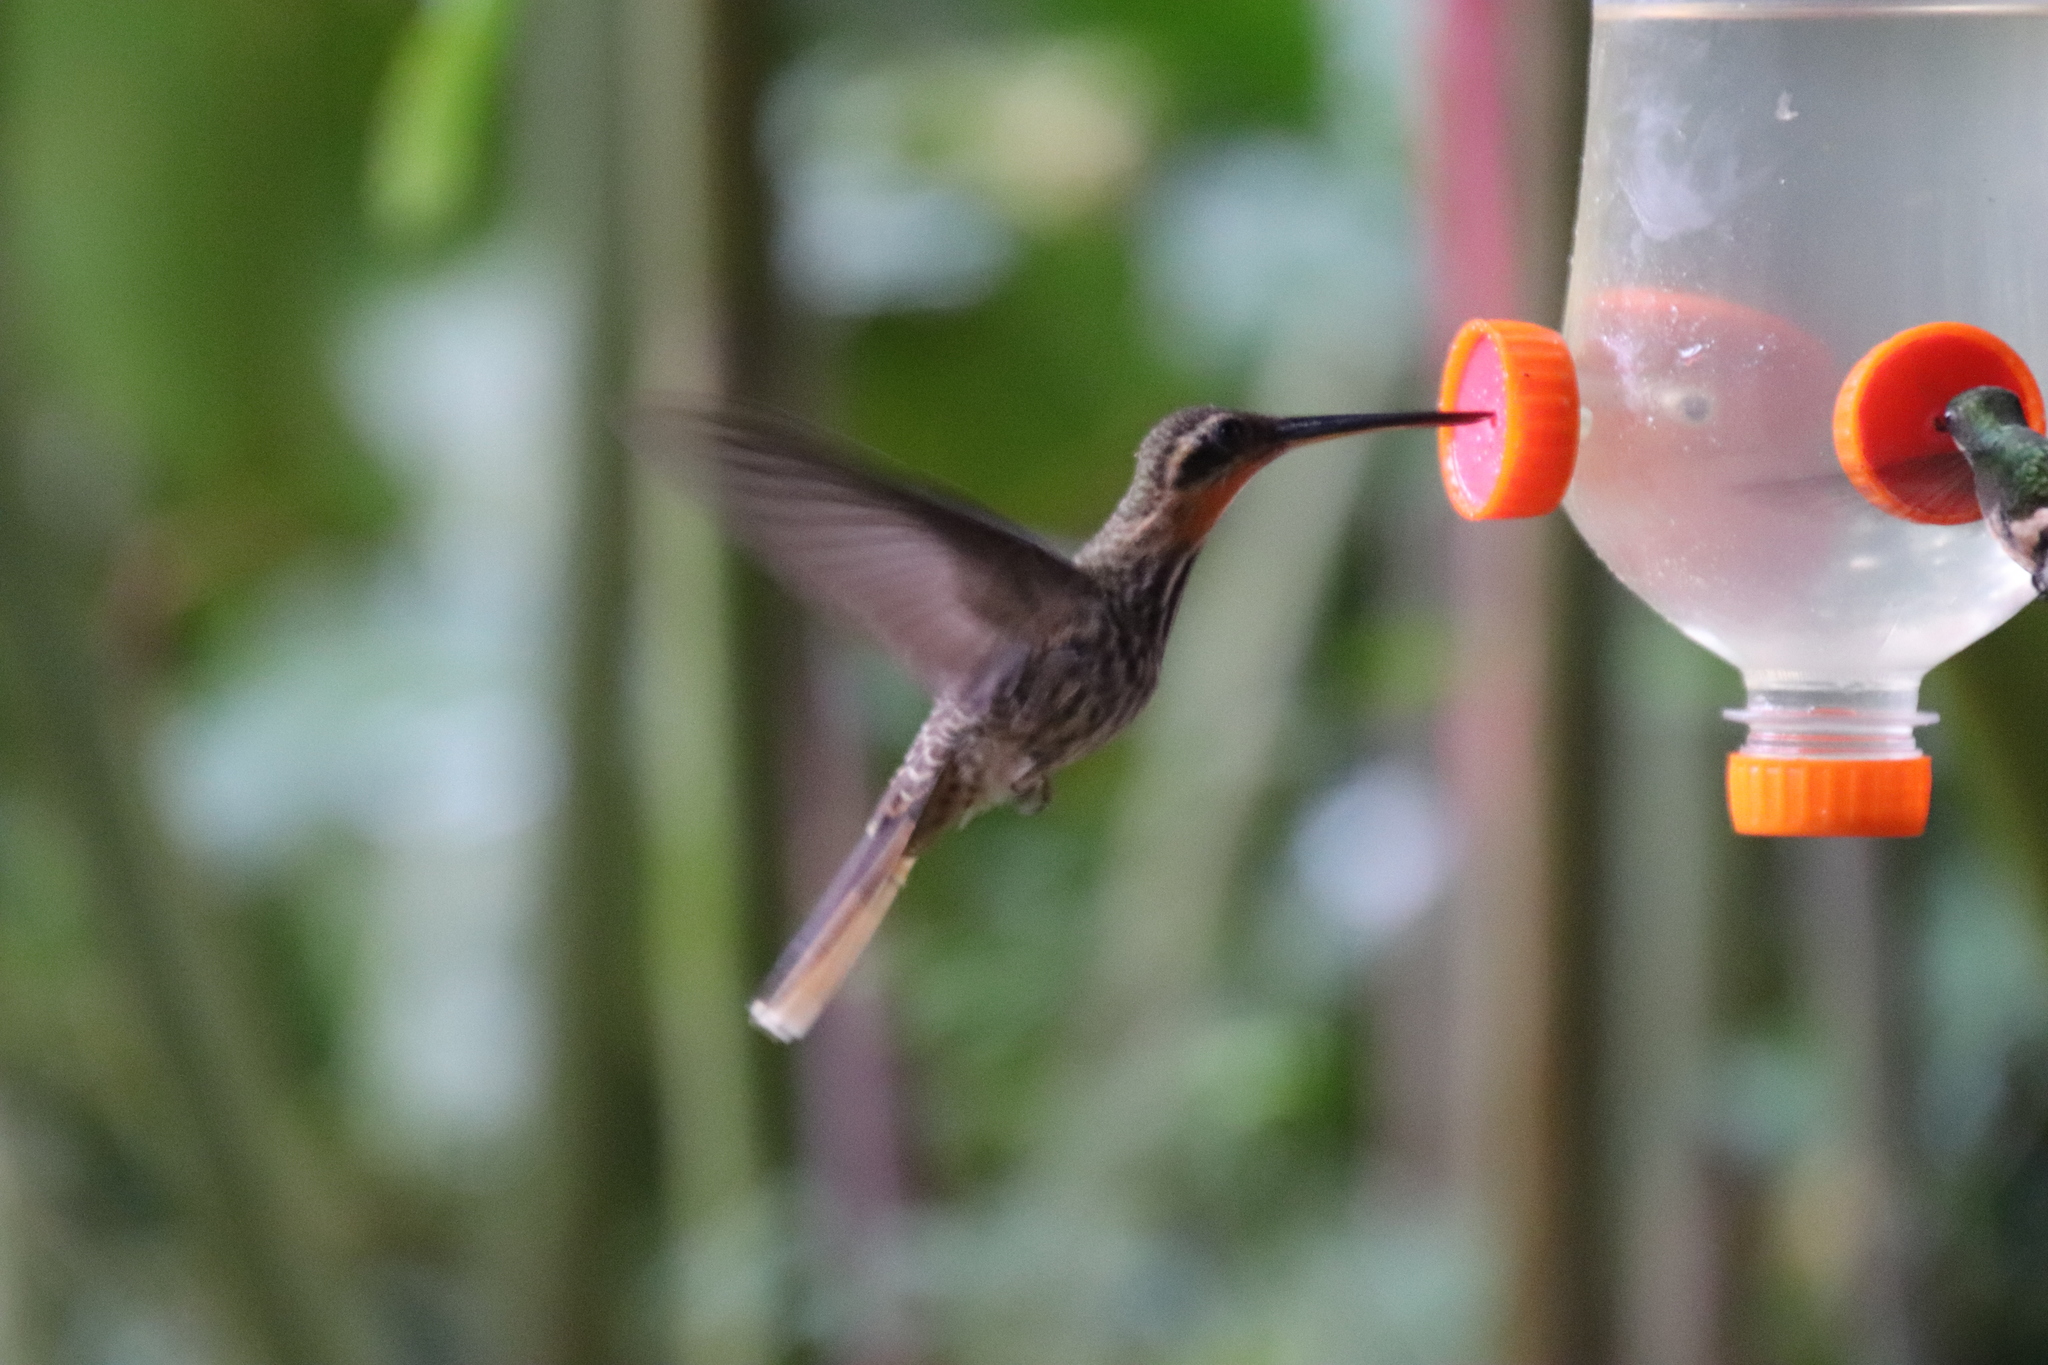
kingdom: Animalia
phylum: Chordata
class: Aves
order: Apodiformes
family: Trochilidae
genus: Ramphodon
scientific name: Ramphodon naevius
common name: Saw-billed hermit
